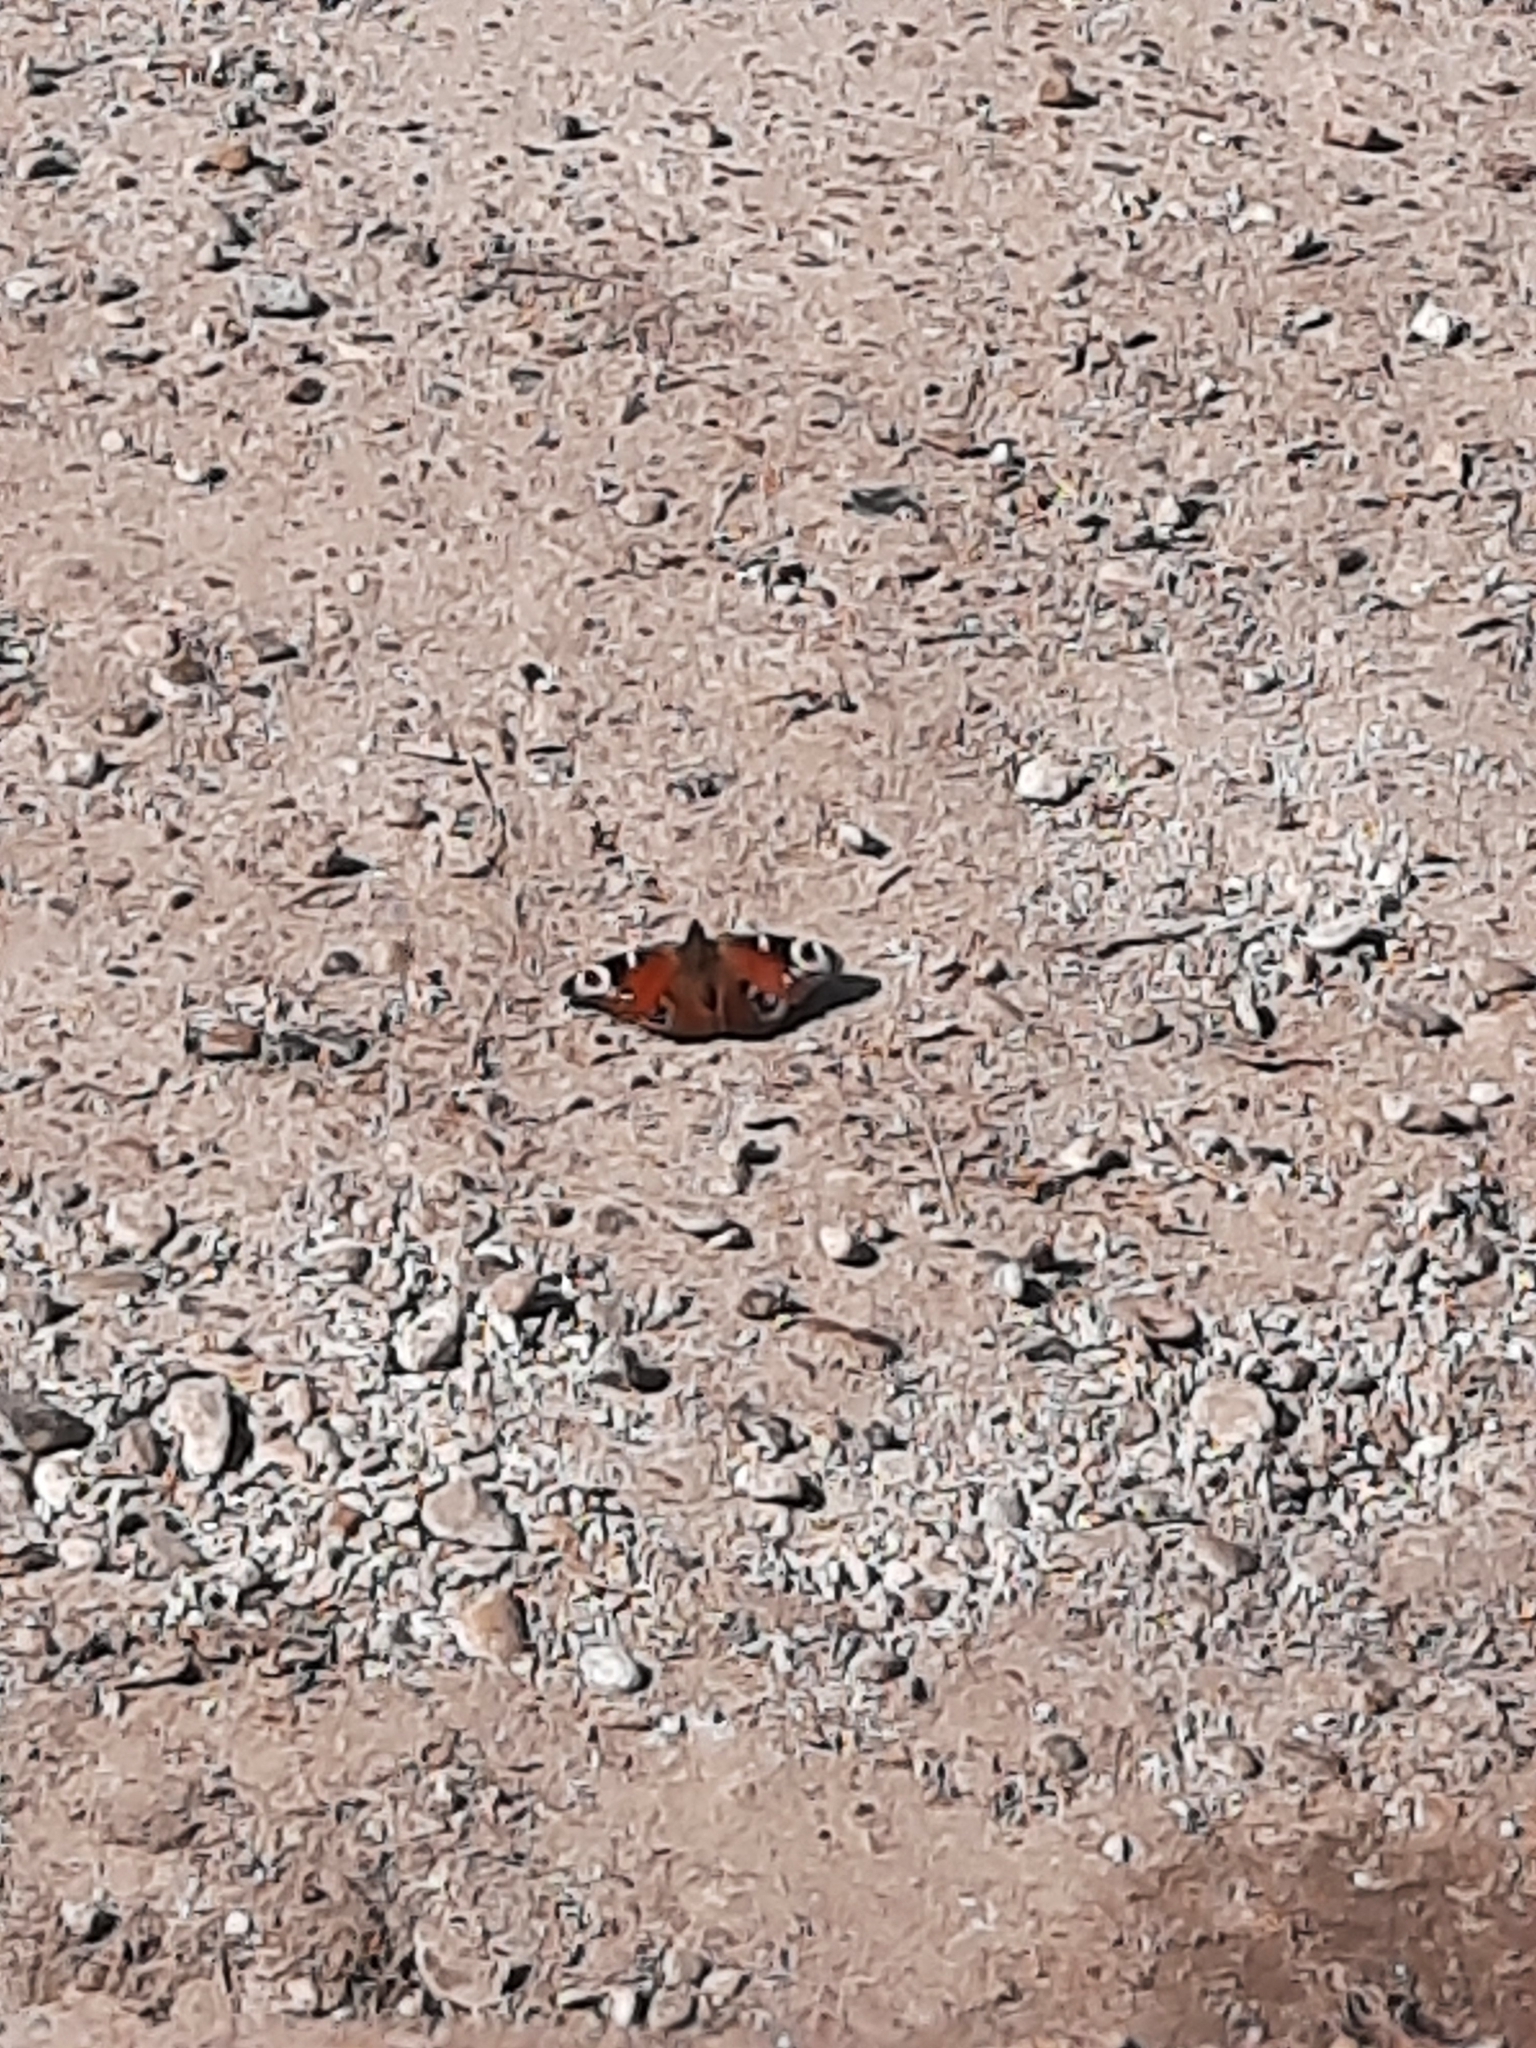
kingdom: Animalia
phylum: Arthropoda
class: Insecta
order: Lepidoptera
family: Nymphalidae
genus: Aglais
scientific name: Aglais io
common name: Peacock
